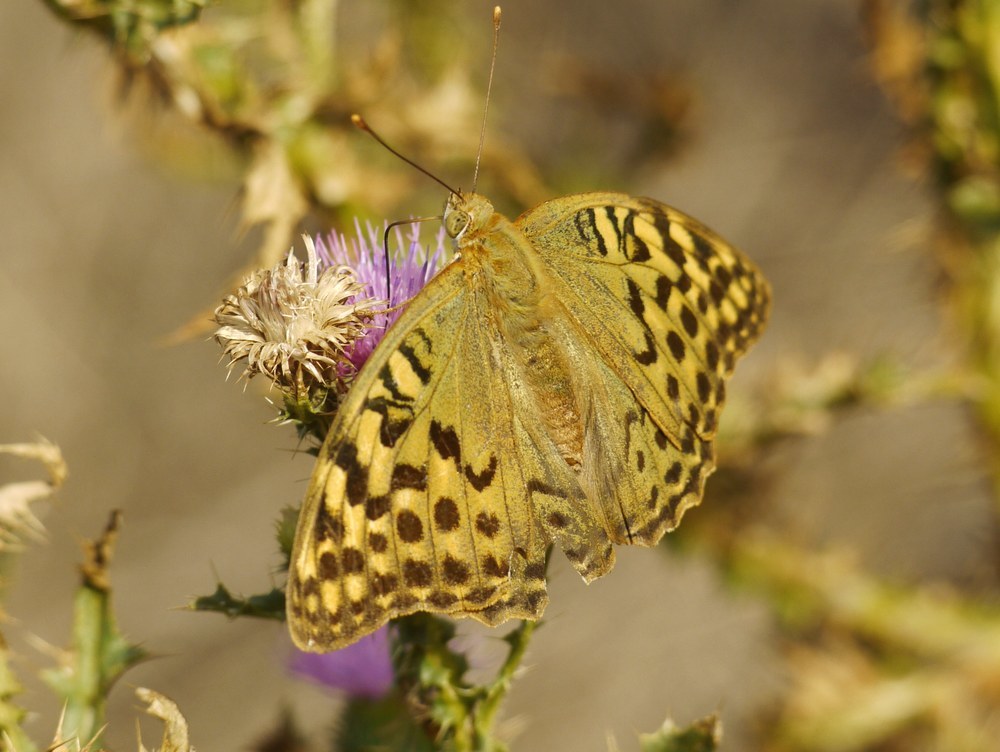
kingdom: Animalia
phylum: Arthropoda
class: Insecta
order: Lepidoptera
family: Nymphalidae
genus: Damora
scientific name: Damora pandora
